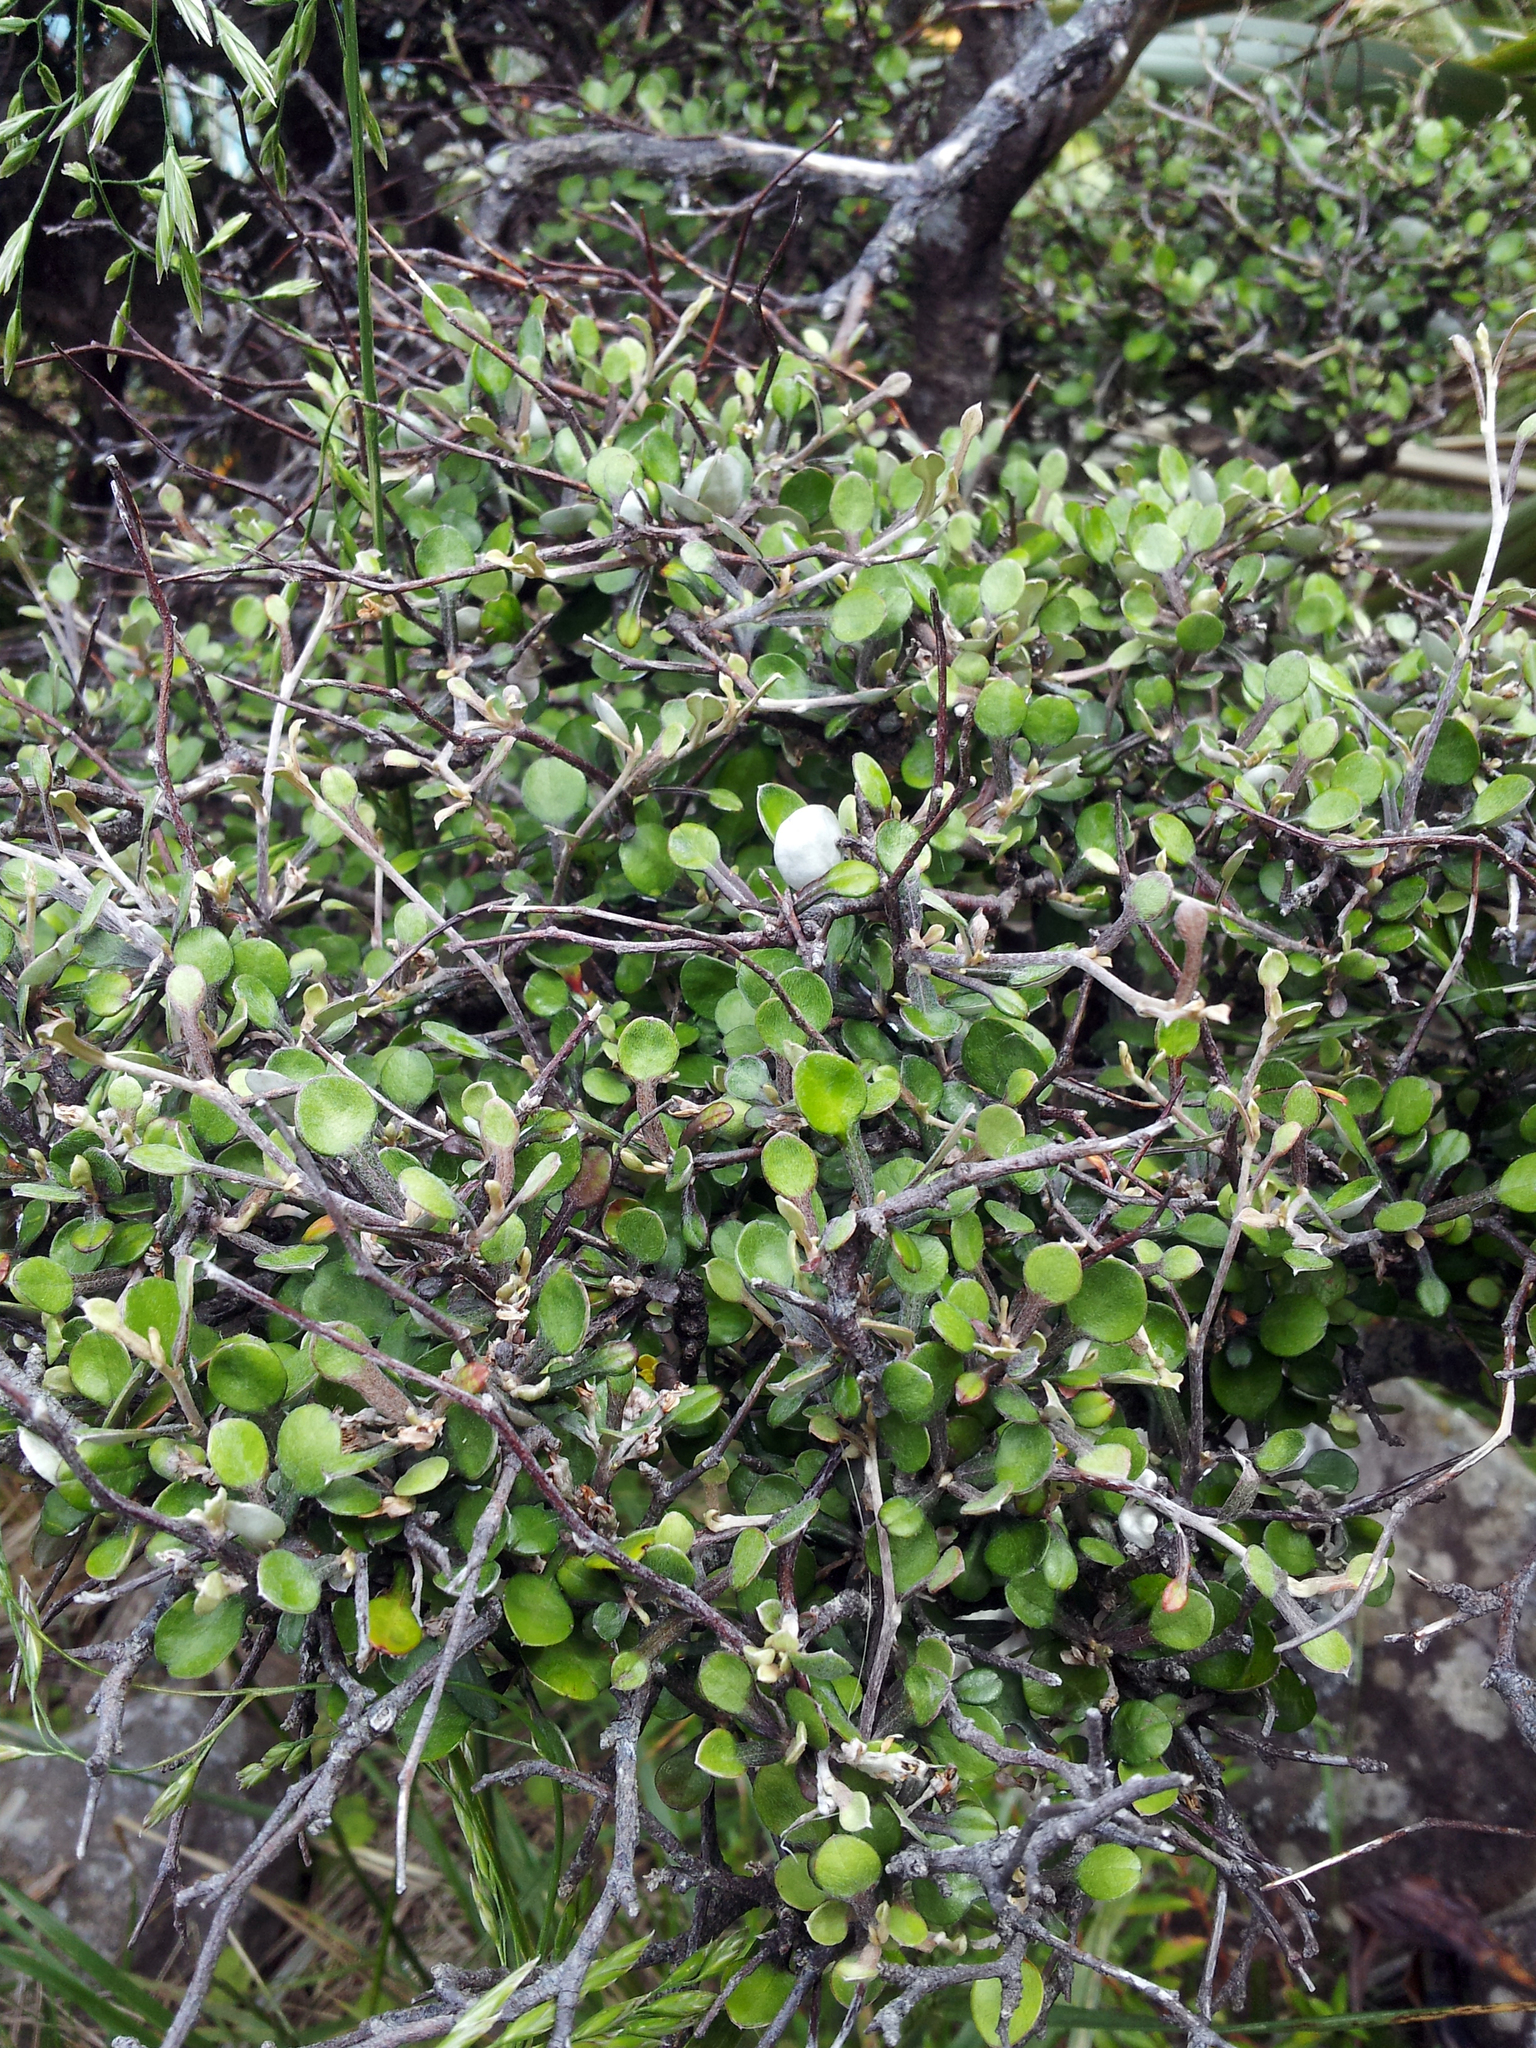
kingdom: Plantae
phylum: Tracheophyta
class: Magnoliopsida
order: Asterales
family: Argophyllaceae
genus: Corokia
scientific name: Corokia cotoneaster
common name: Wire nettingbush
